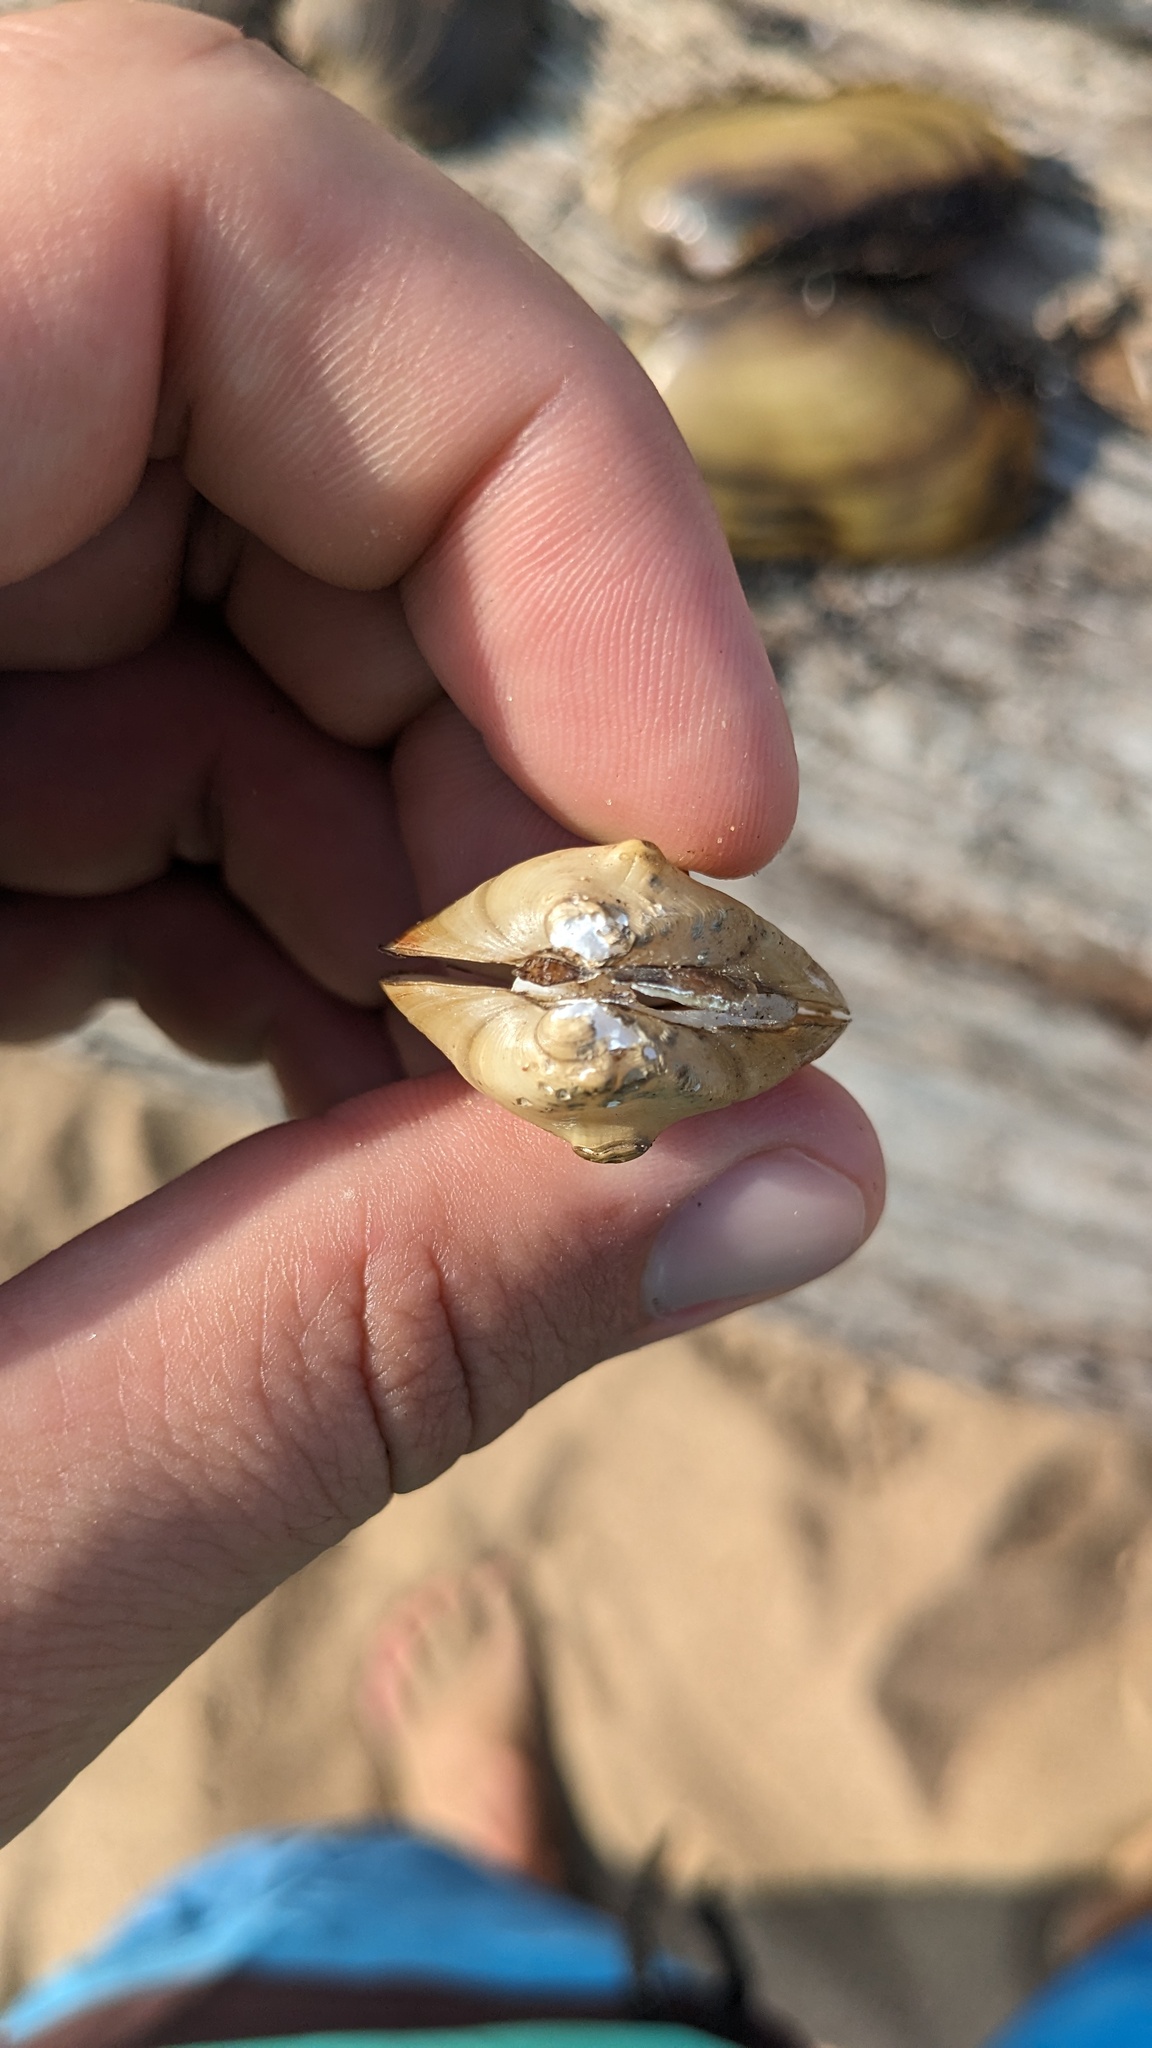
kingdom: Animalia
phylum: Mollusca
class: Bivalvia
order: Unionida
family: Unionidae
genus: Obliquaria
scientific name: Obliquaria reflexa
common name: Threehorn wartyback
